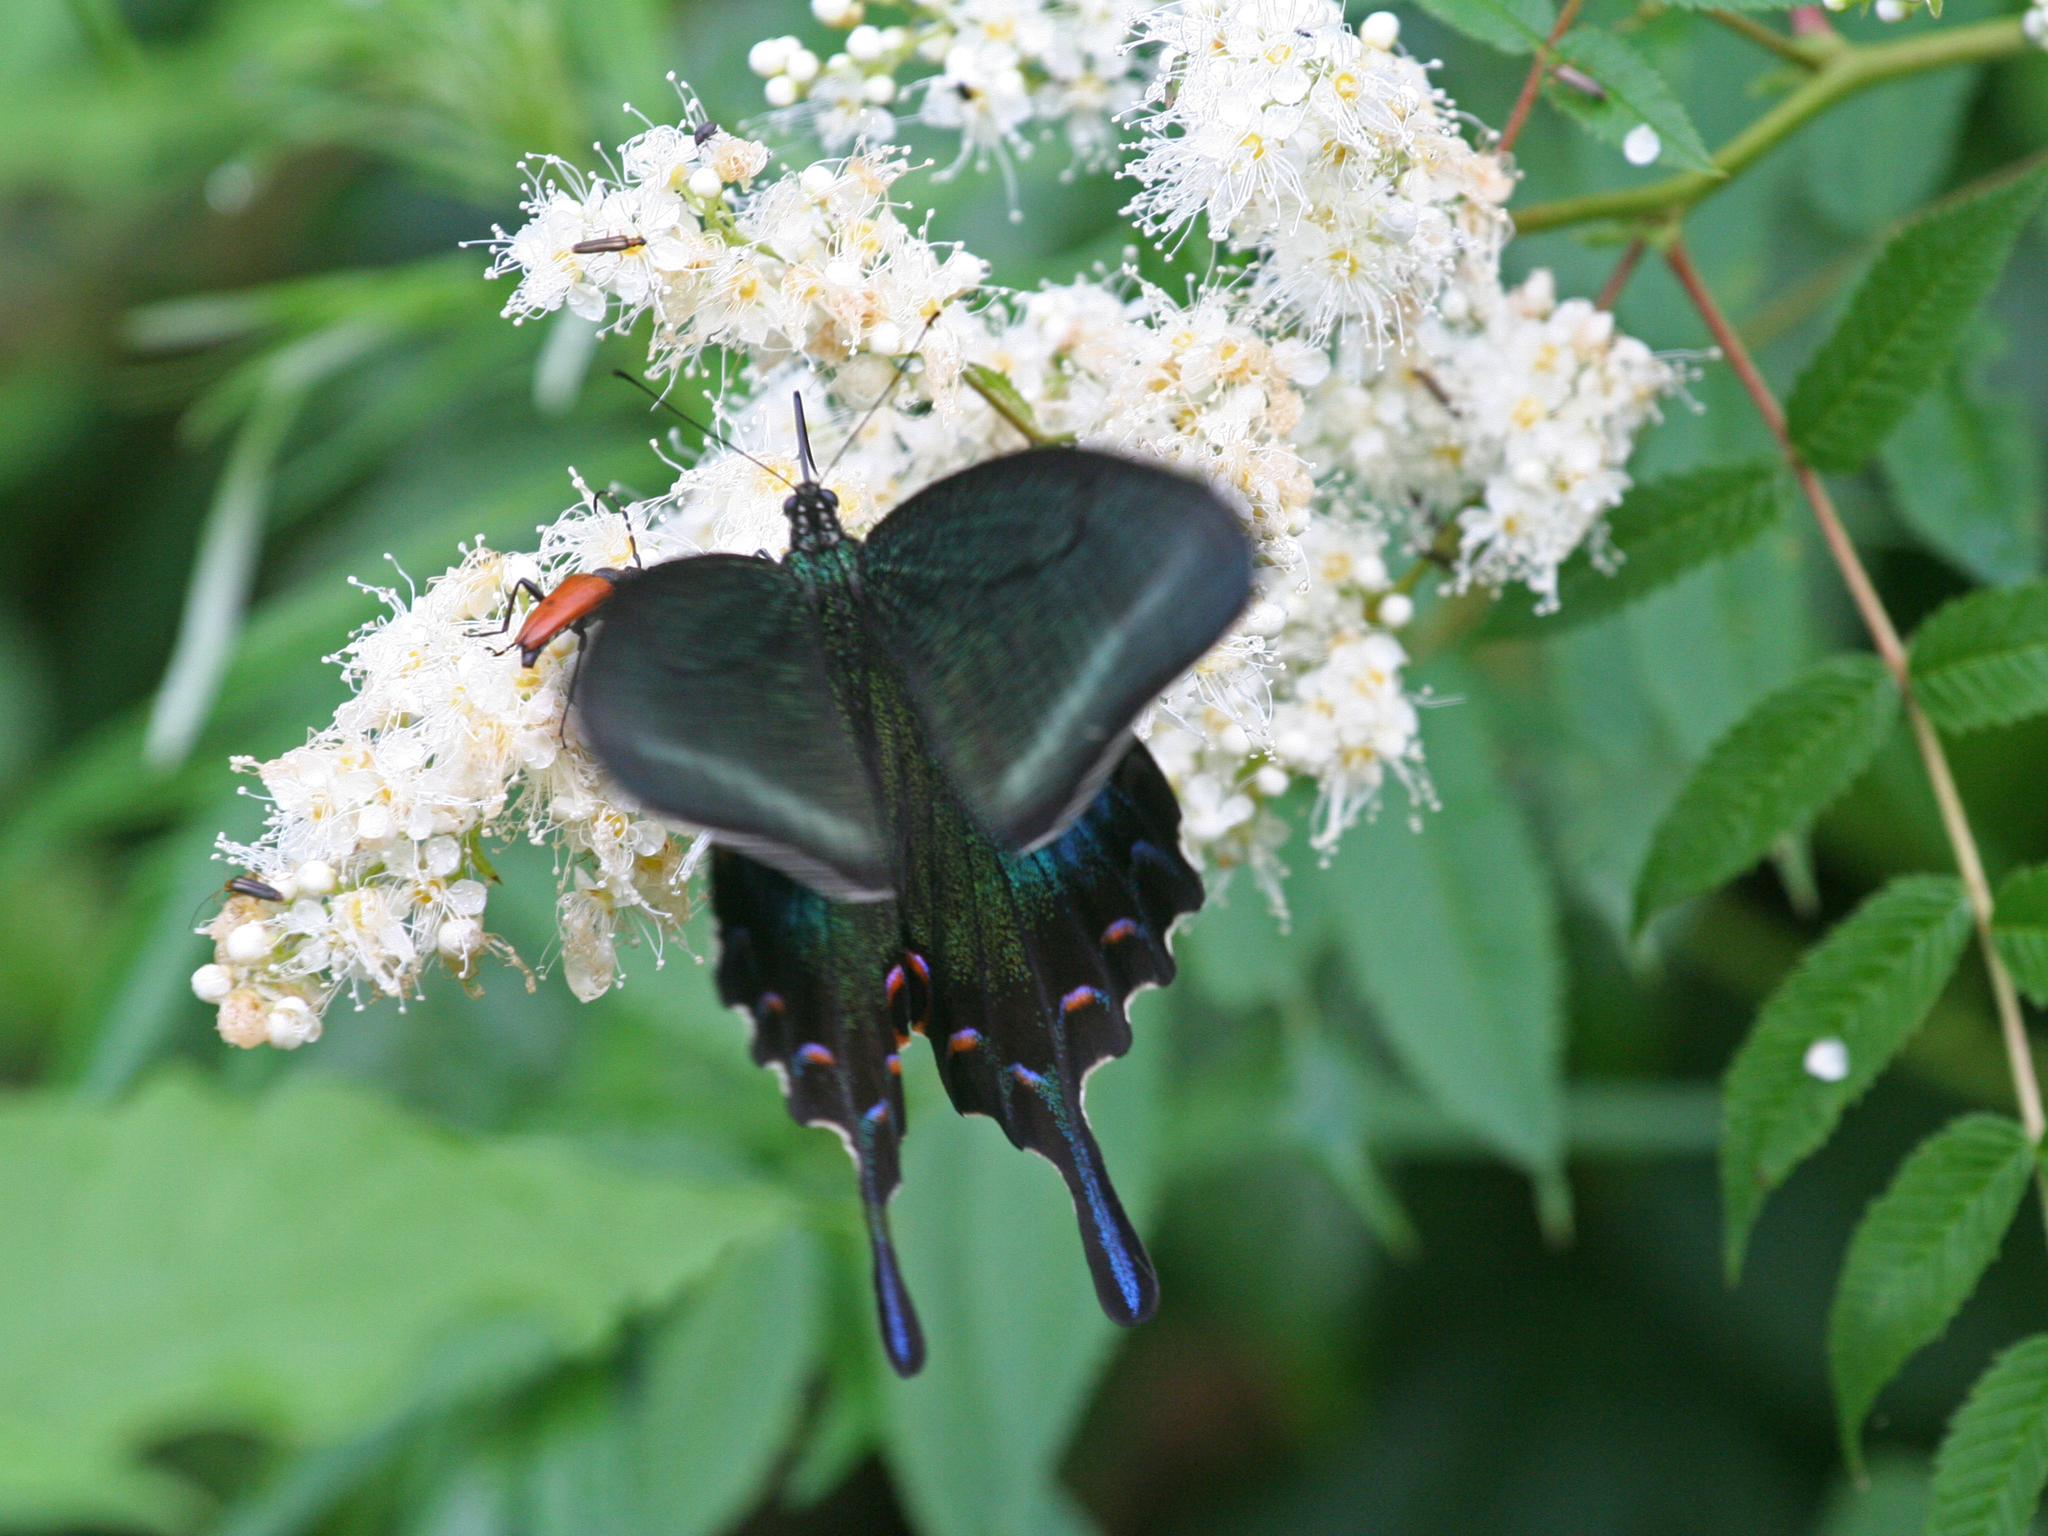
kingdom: Animalia
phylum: Arthropoda
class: Insecta
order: Lepidoptera
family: Papilionidae
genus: Papilio
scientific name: Papilio maackii
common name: Alpine black swallowtail
